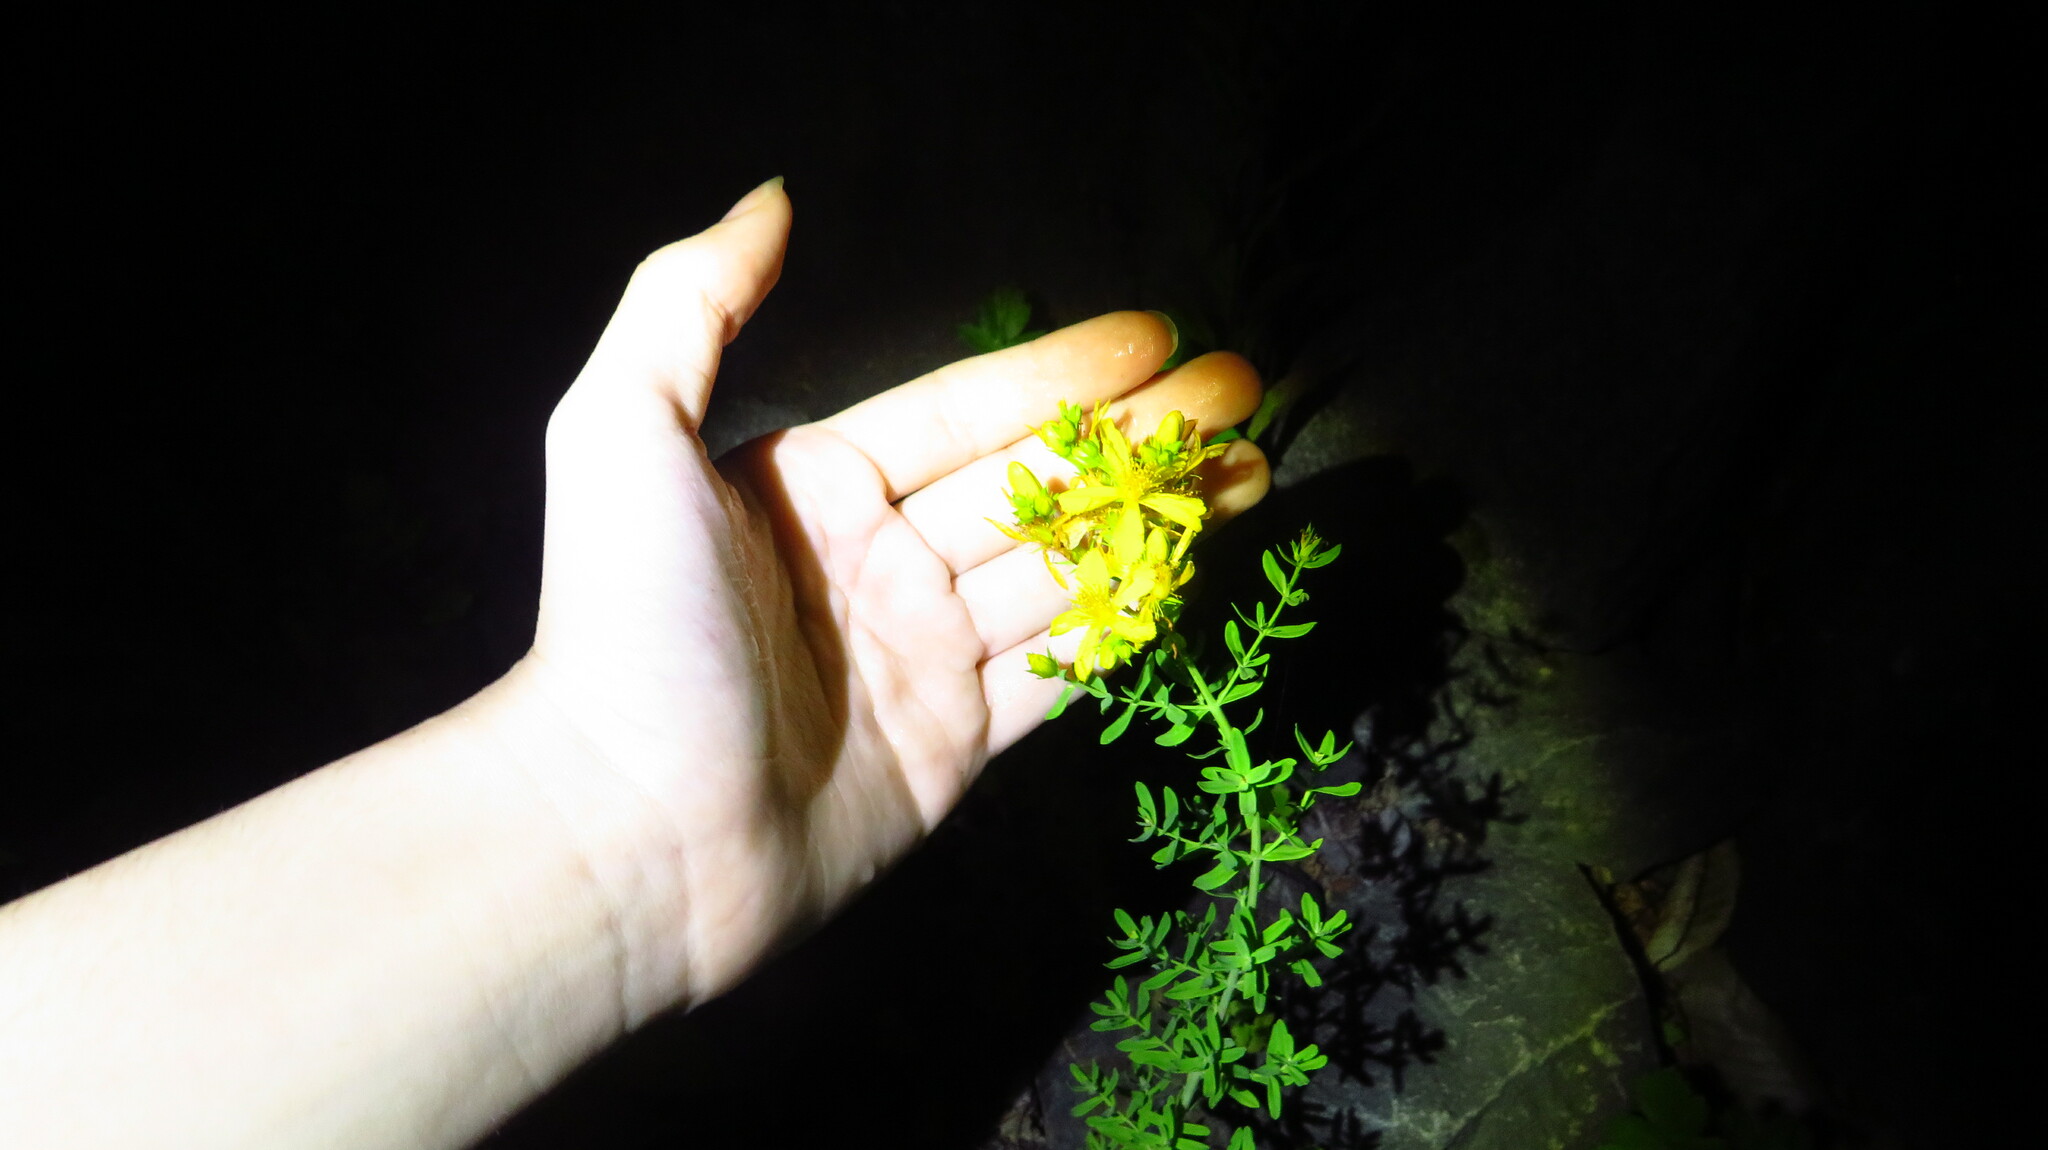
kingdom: Plantae
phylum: Tracheophyta
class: Magnoliopsida
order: Malpighiales
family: Hypericaceae
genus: Hypericum
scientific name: Hypericum perforatum
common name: Common st. johnswort
